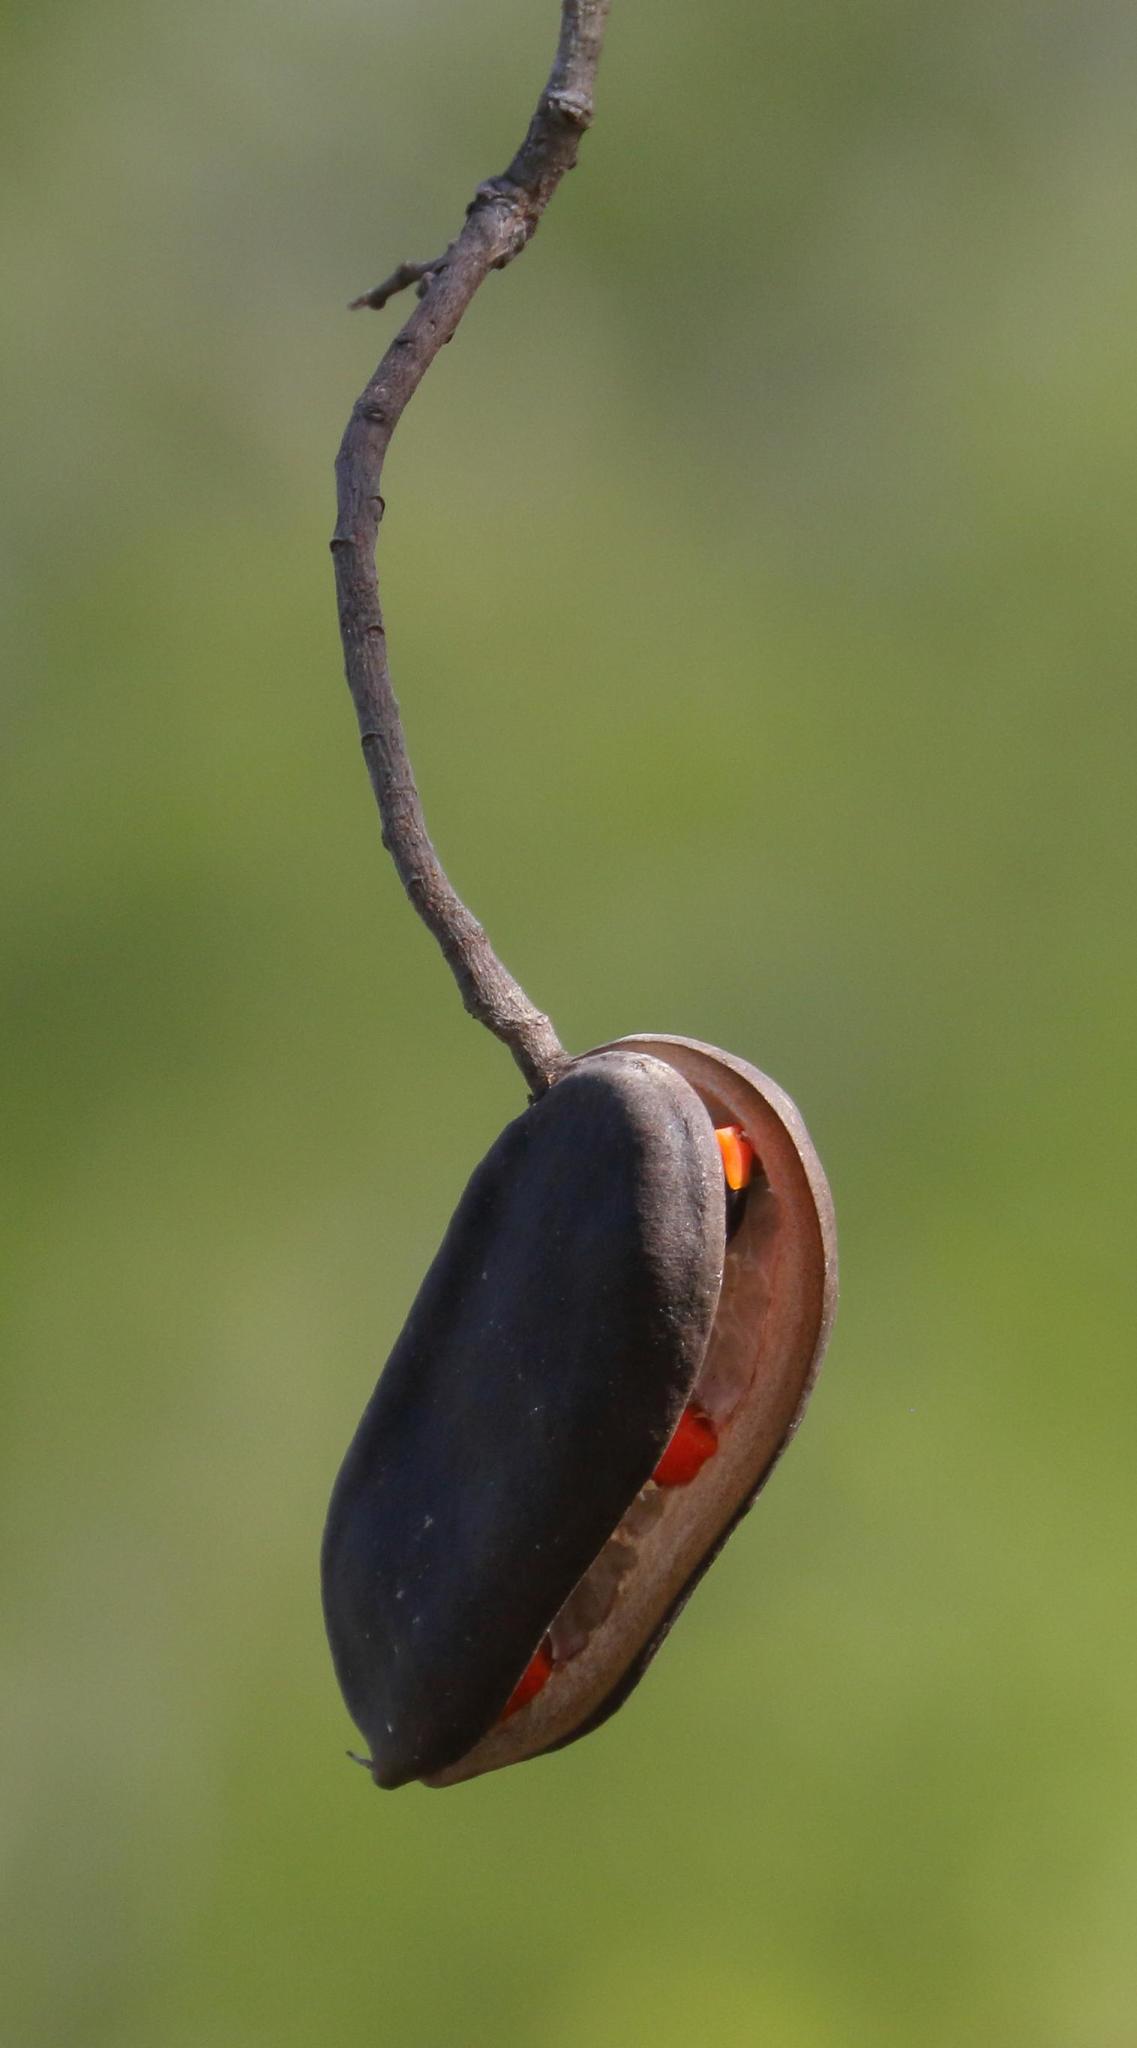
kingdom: Plantae
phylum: Tracheophyta
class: Magnoliopsida
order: Fabales
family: Fabaceae
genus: Afzelia
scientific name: Afzelia quanzensis
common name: Pod mahogany
